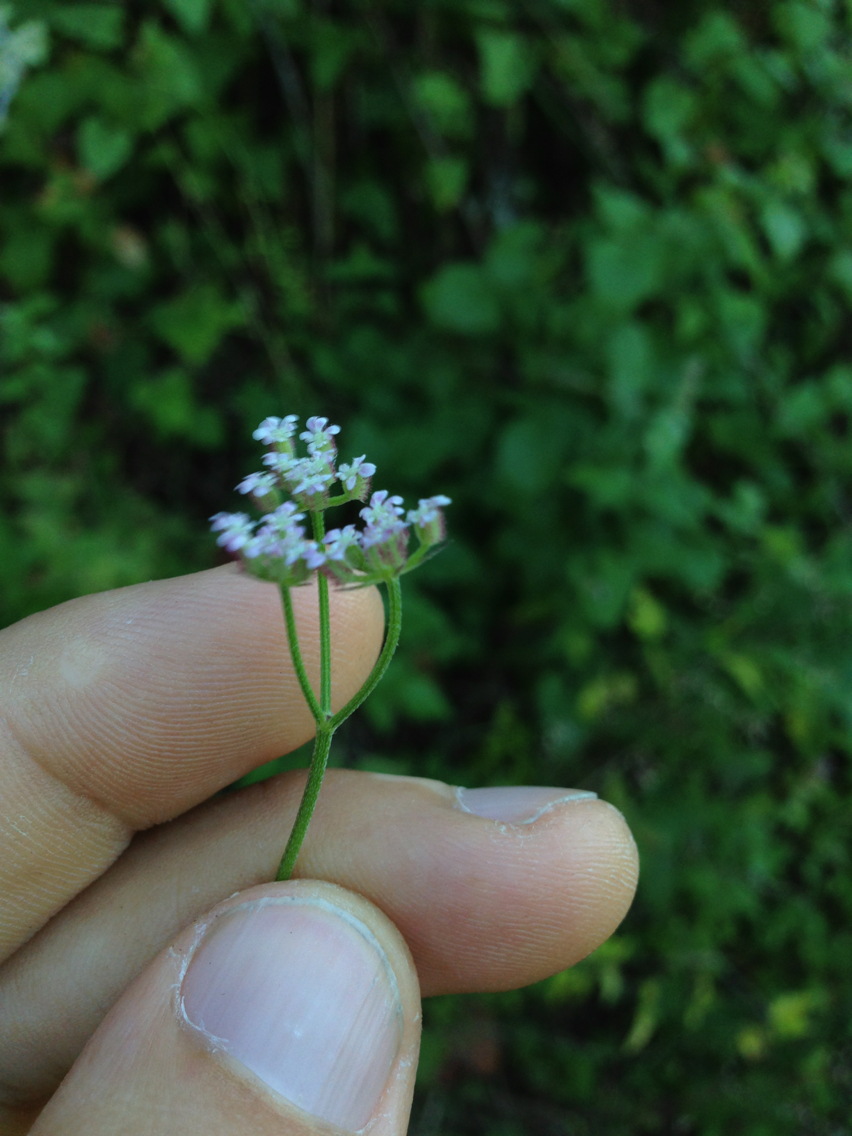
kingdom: Plantae
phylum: Tracheophyta
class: Magnoliopsida
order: Apiales
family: Apiaceae
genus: Torilis
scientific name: Torilis arvensis
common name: Spreading hedge-parsley
